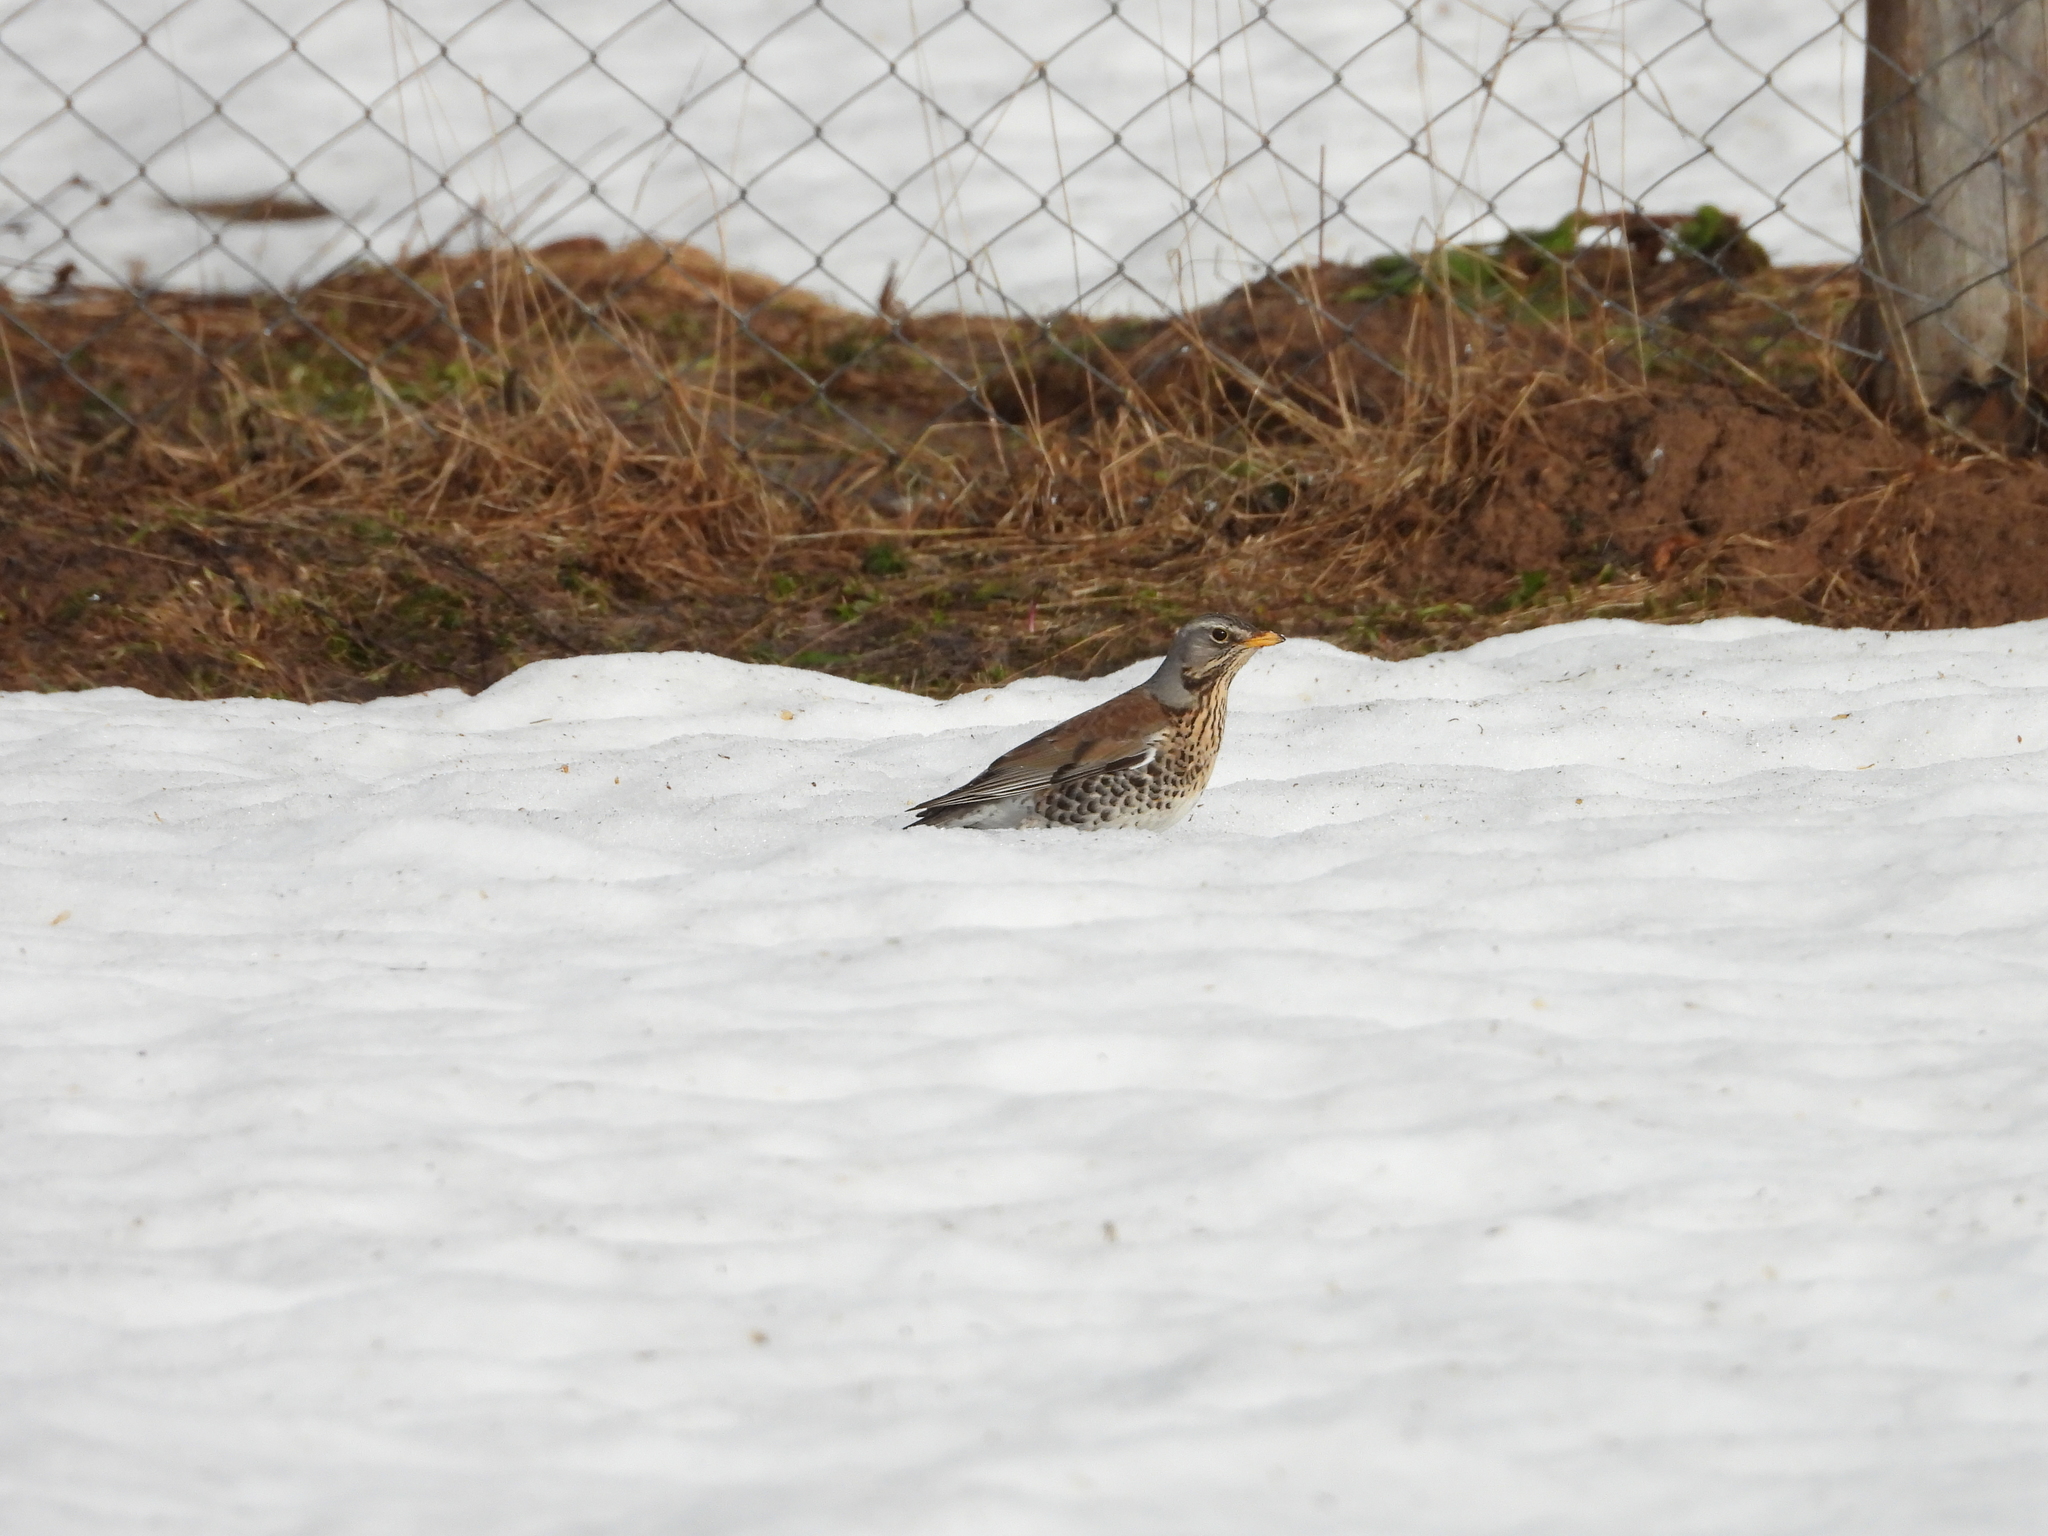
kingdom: Animalia
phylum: Chordata
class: Aves
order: Passeriformes
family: Turdidae
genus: Turdus
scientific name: Turdus pilaris
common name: Fieldfare
